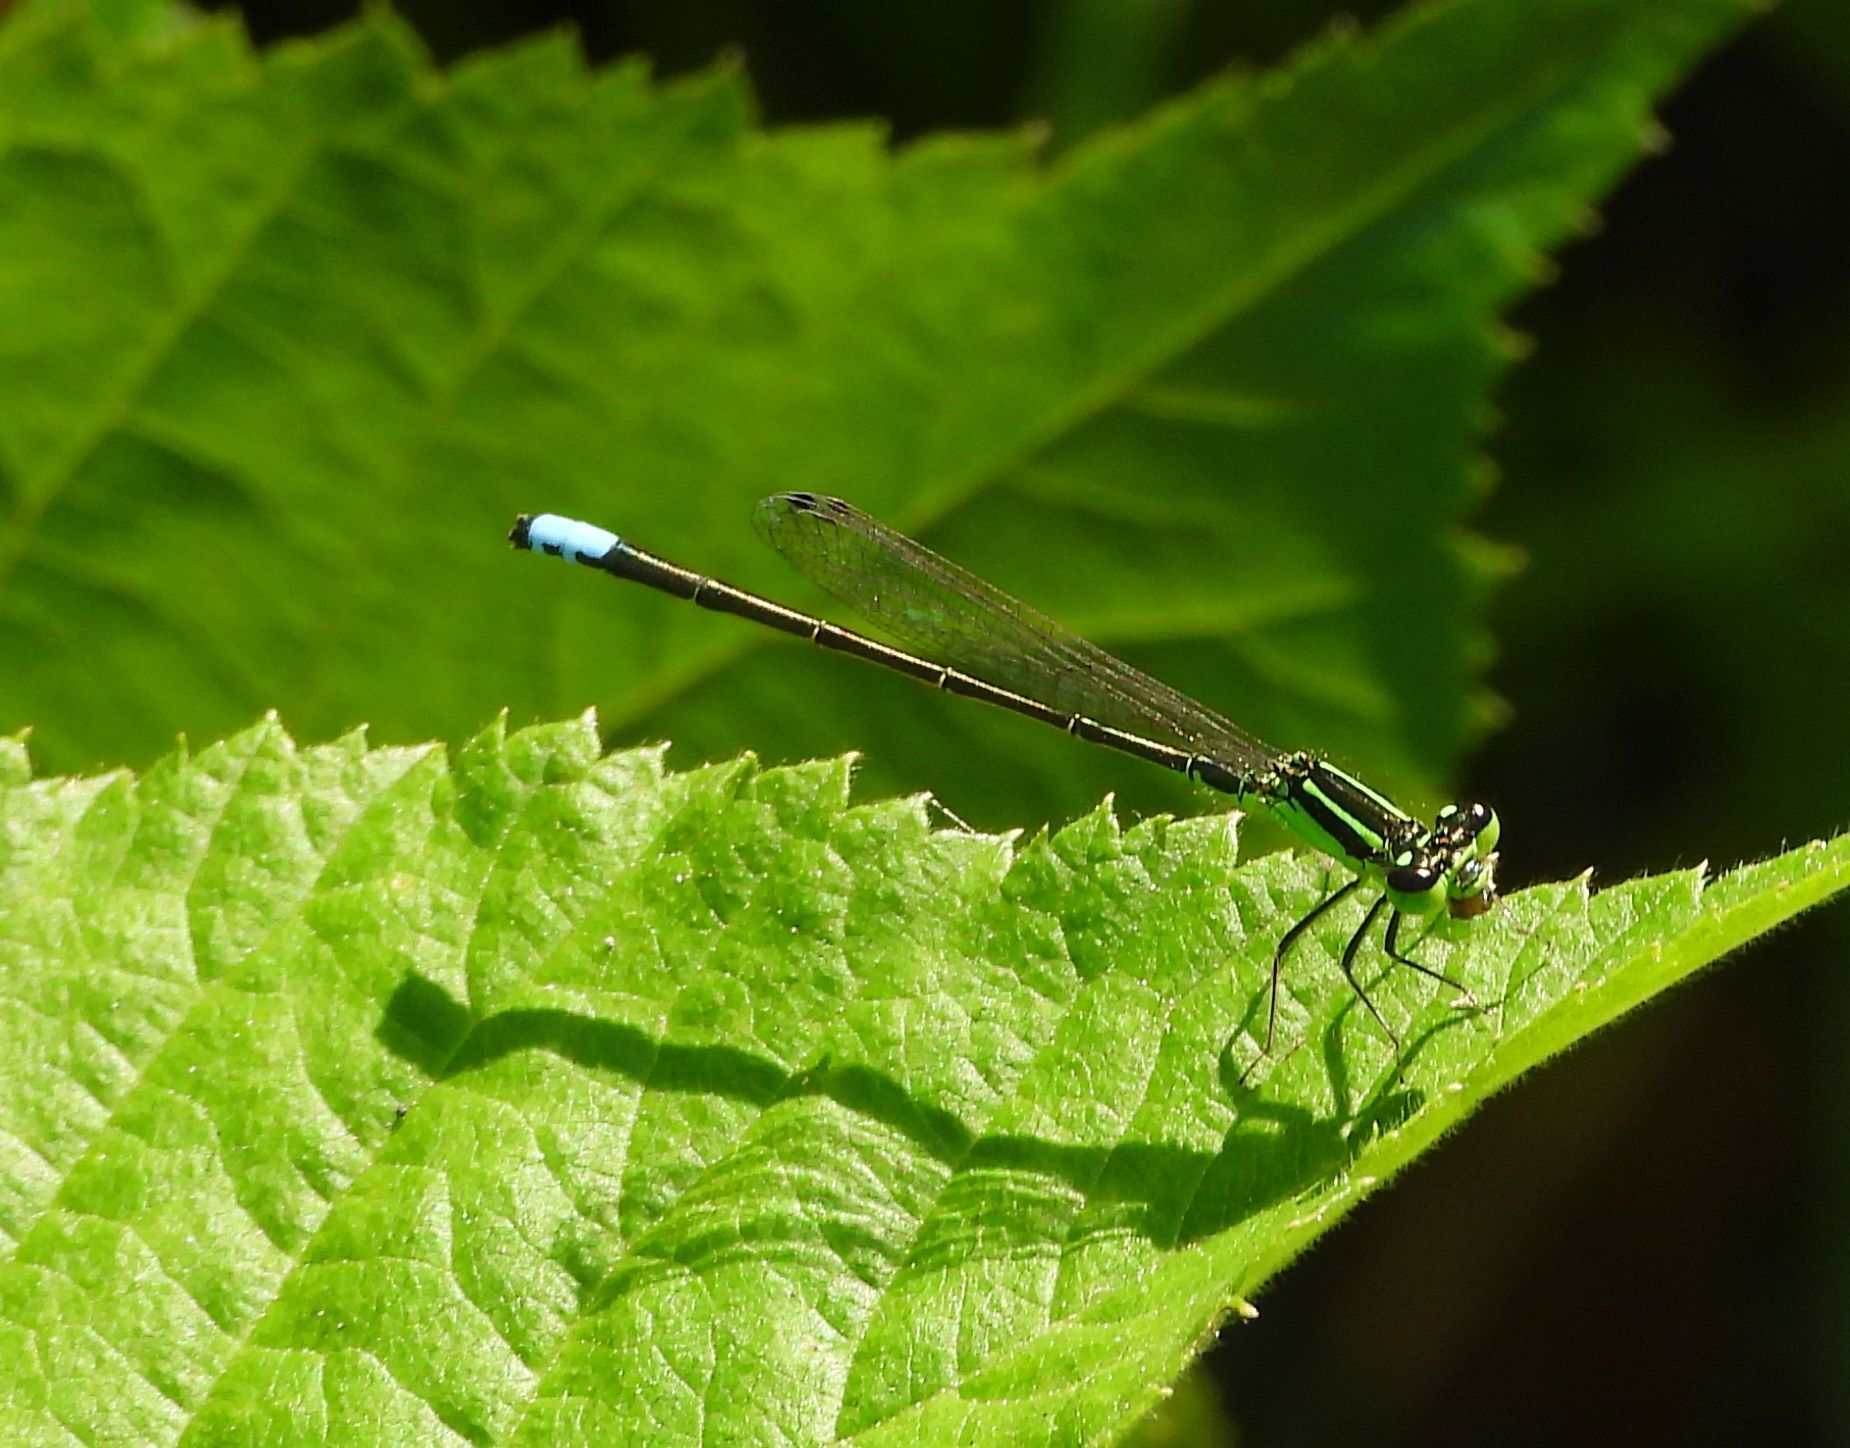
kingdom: Animalia
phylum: Arthropoda
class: Insecta
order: Odonata
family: Coenagrionidae
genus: Ischnura
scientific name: Ischnura verticalis
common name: Eastern forktail
